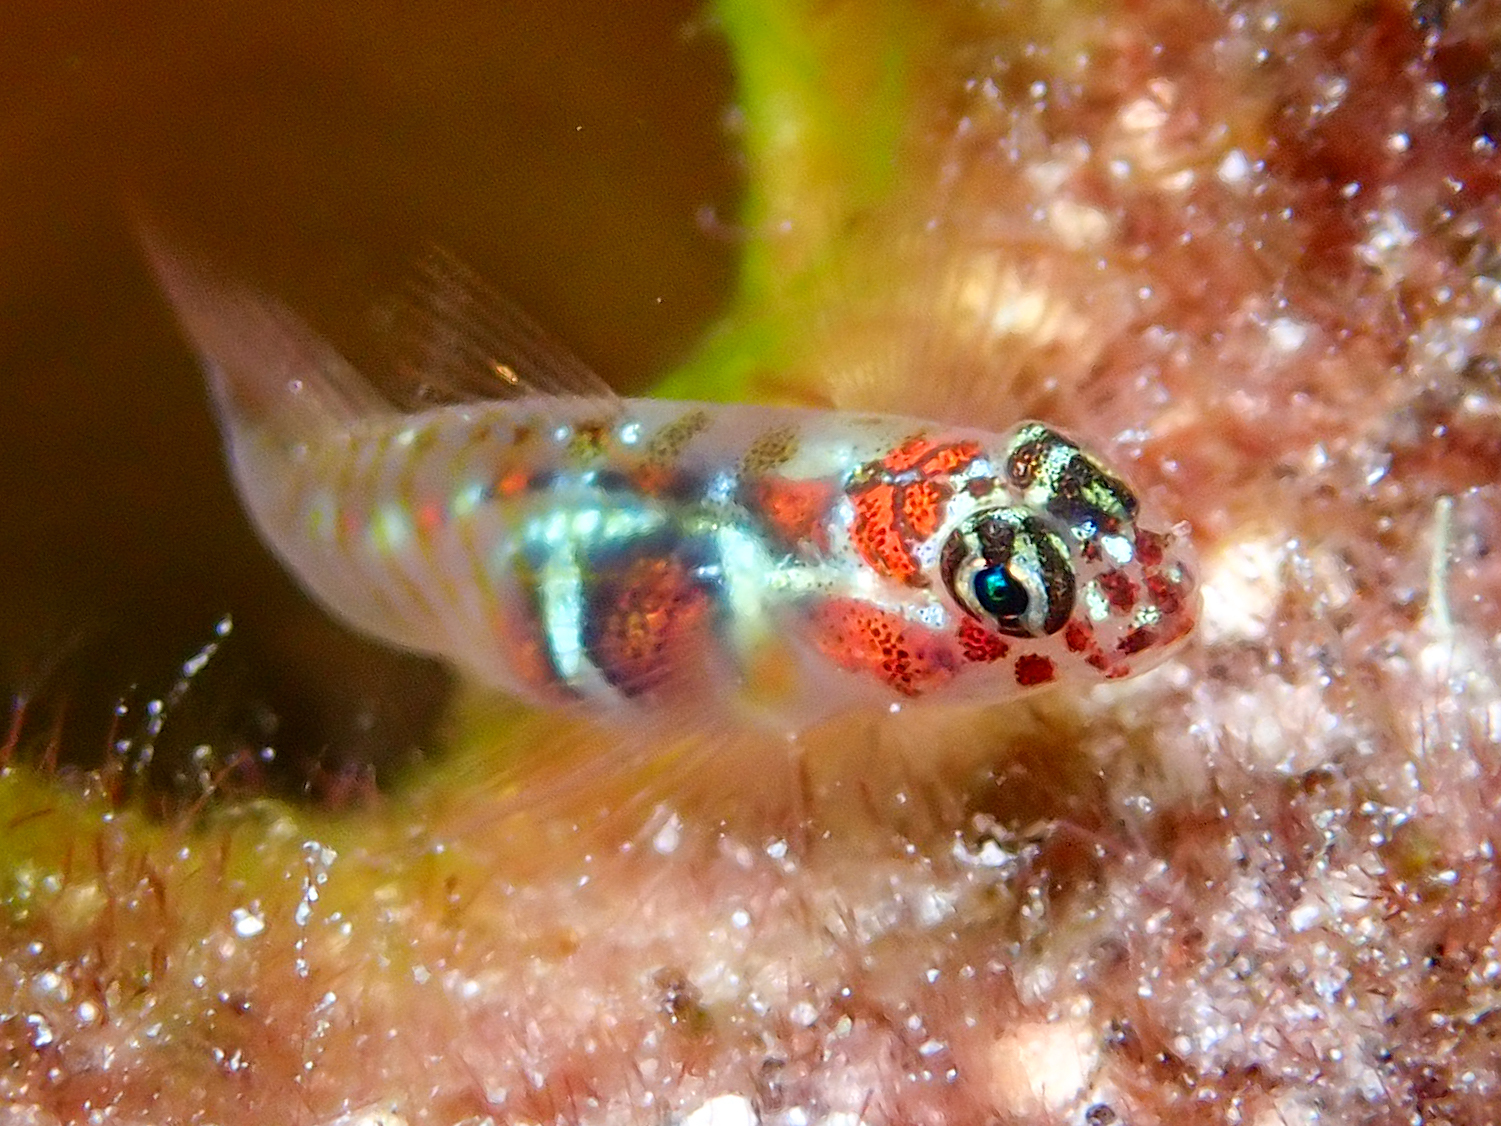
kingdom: Animalia
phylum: Chordata
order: Perciformes
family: Gobiidae
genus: Tigrigobius
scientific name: Tigrigobius dilepis
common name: Orangeside goby
